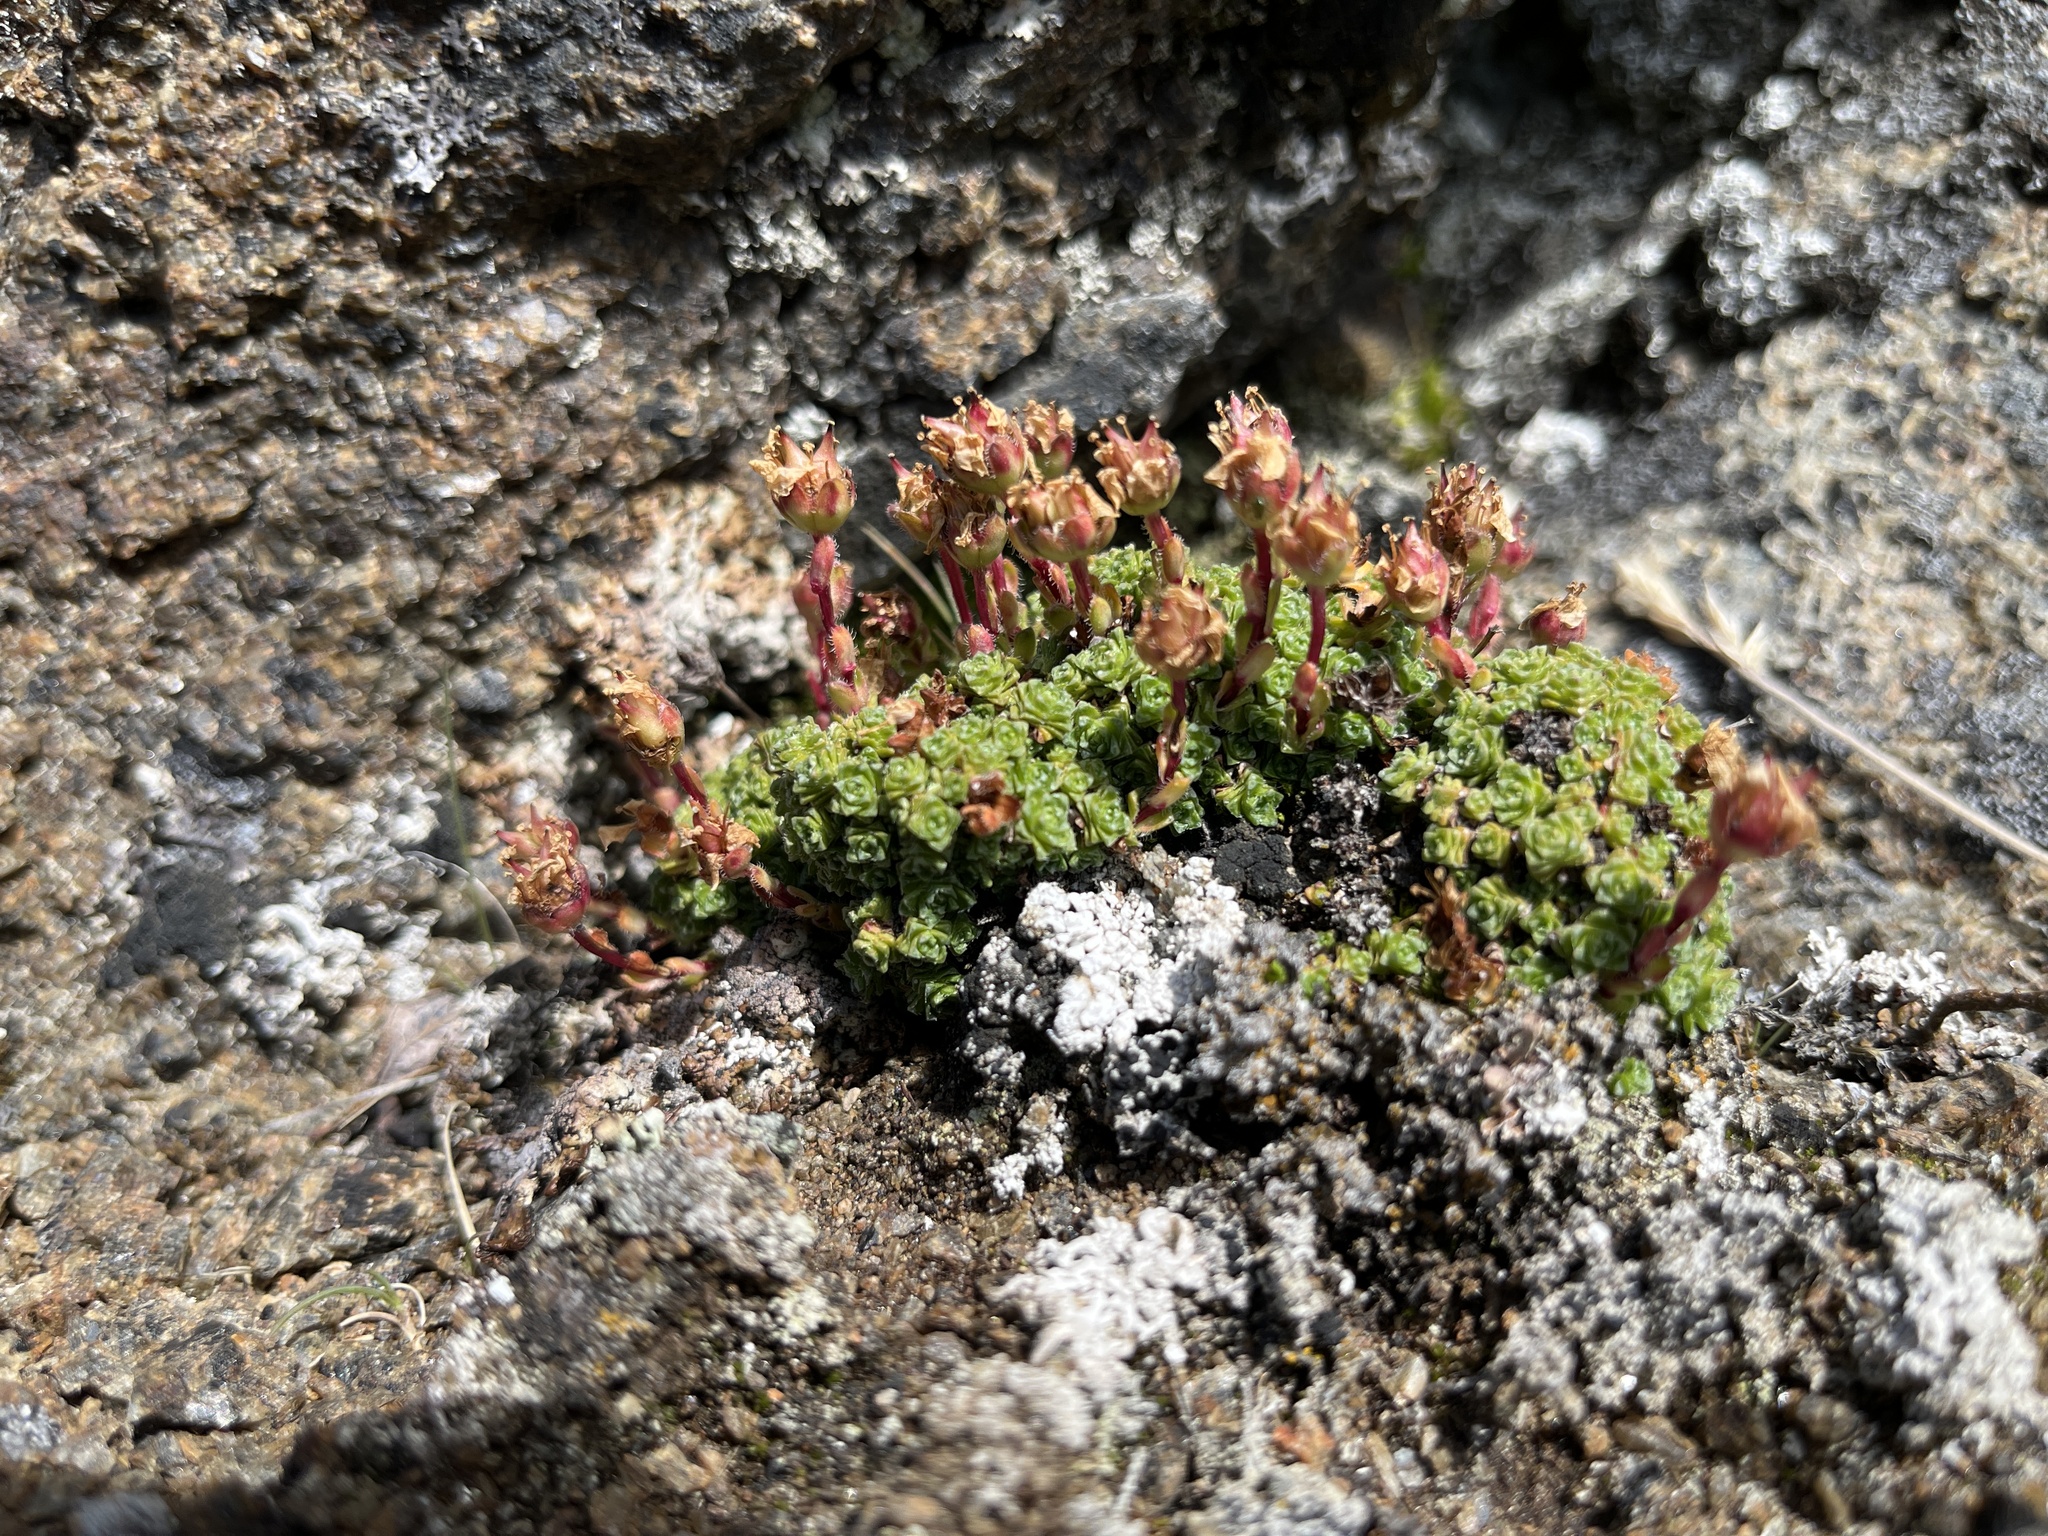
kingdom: Plantae
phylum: Tracheophyta
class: Magnoliopsida
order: Saxifragales
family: Saxifragaceae
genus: Saxifraga
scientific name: Saxifraga oppositifolia
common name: Purple saxifrage
